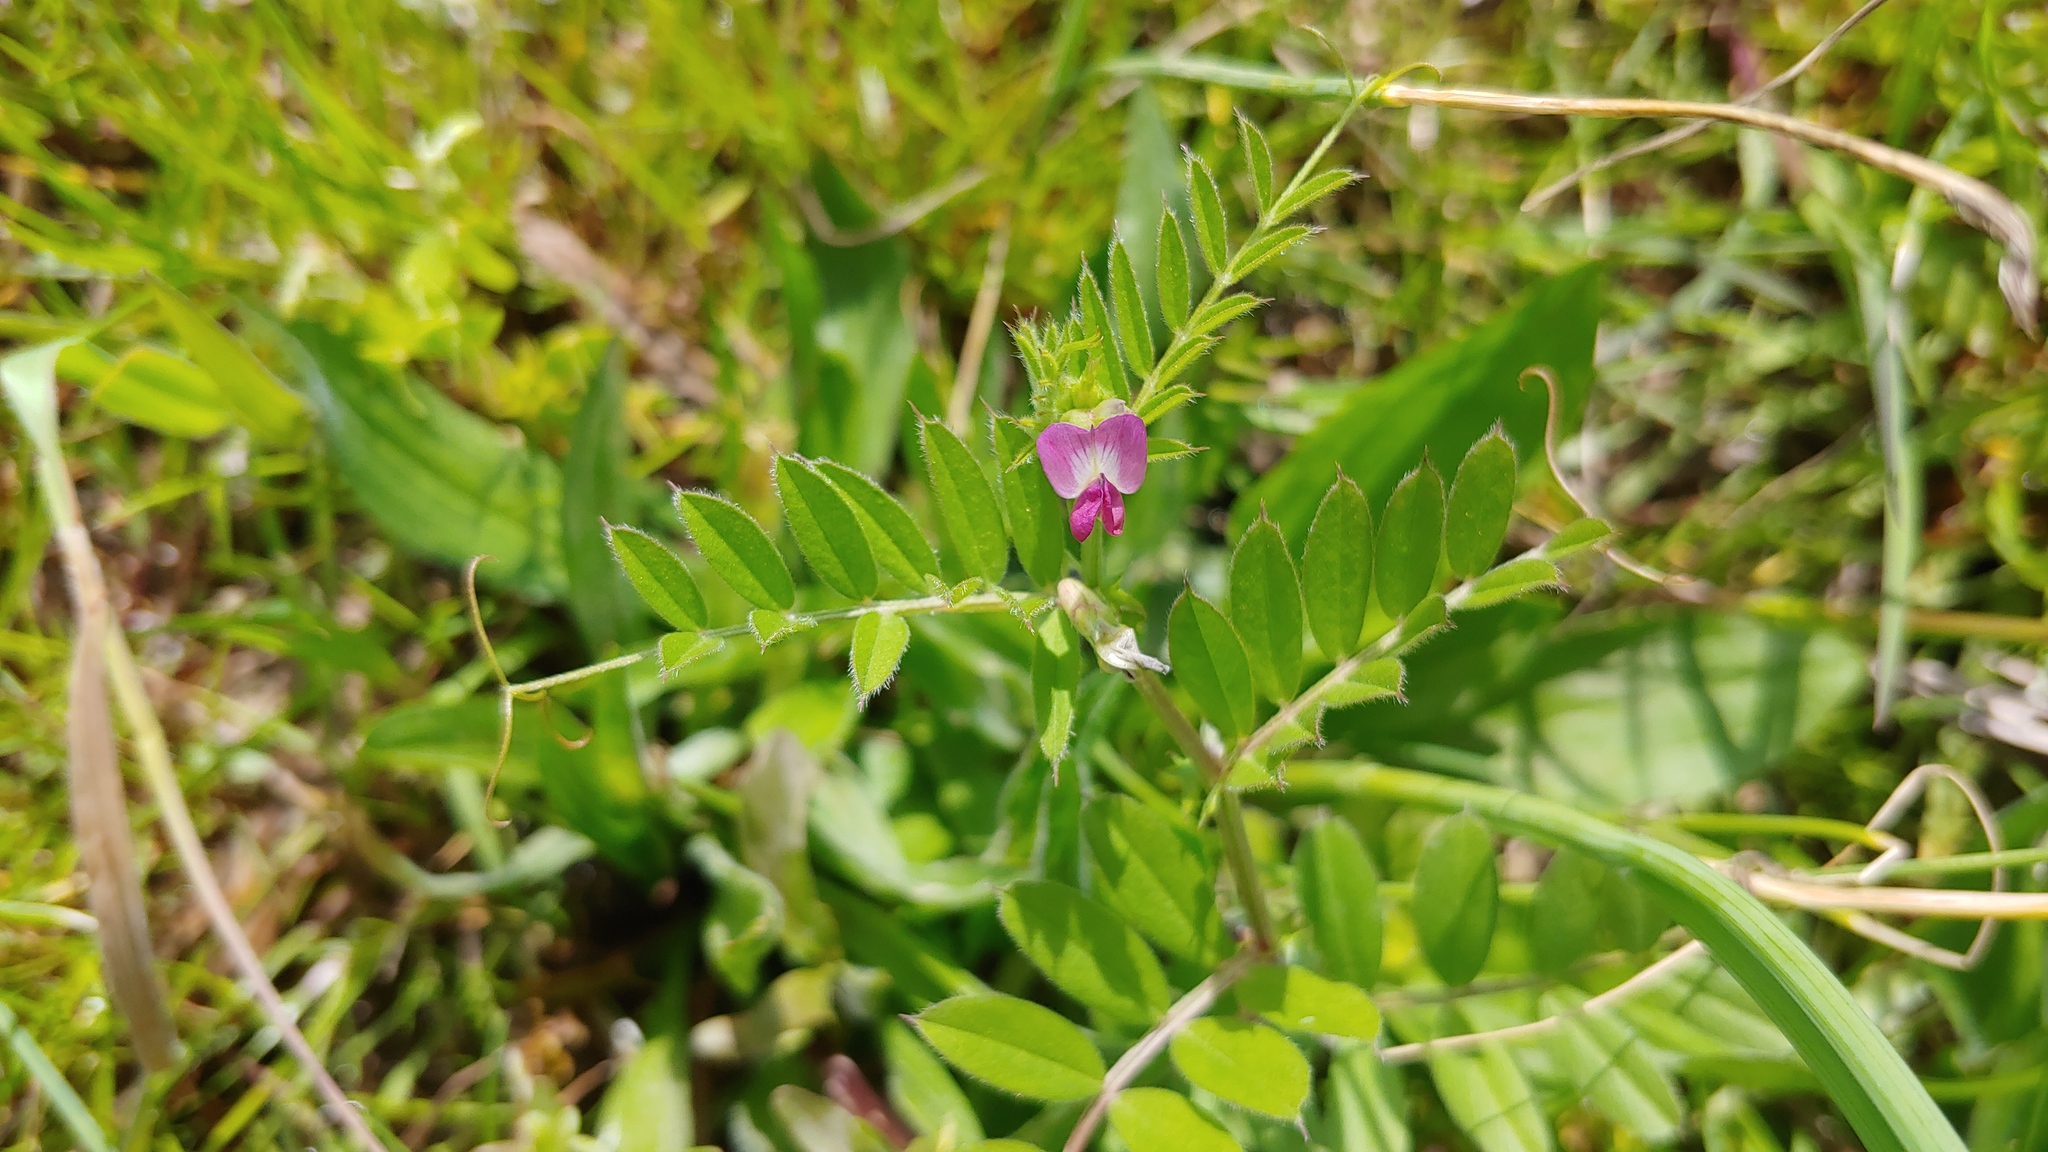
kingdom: Plantae
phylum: Tracheophyta
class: Magnoliopsida
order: Fabales
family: Fabaceae
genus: Vicia
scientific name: Vicia sativa
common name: Garden vetch
